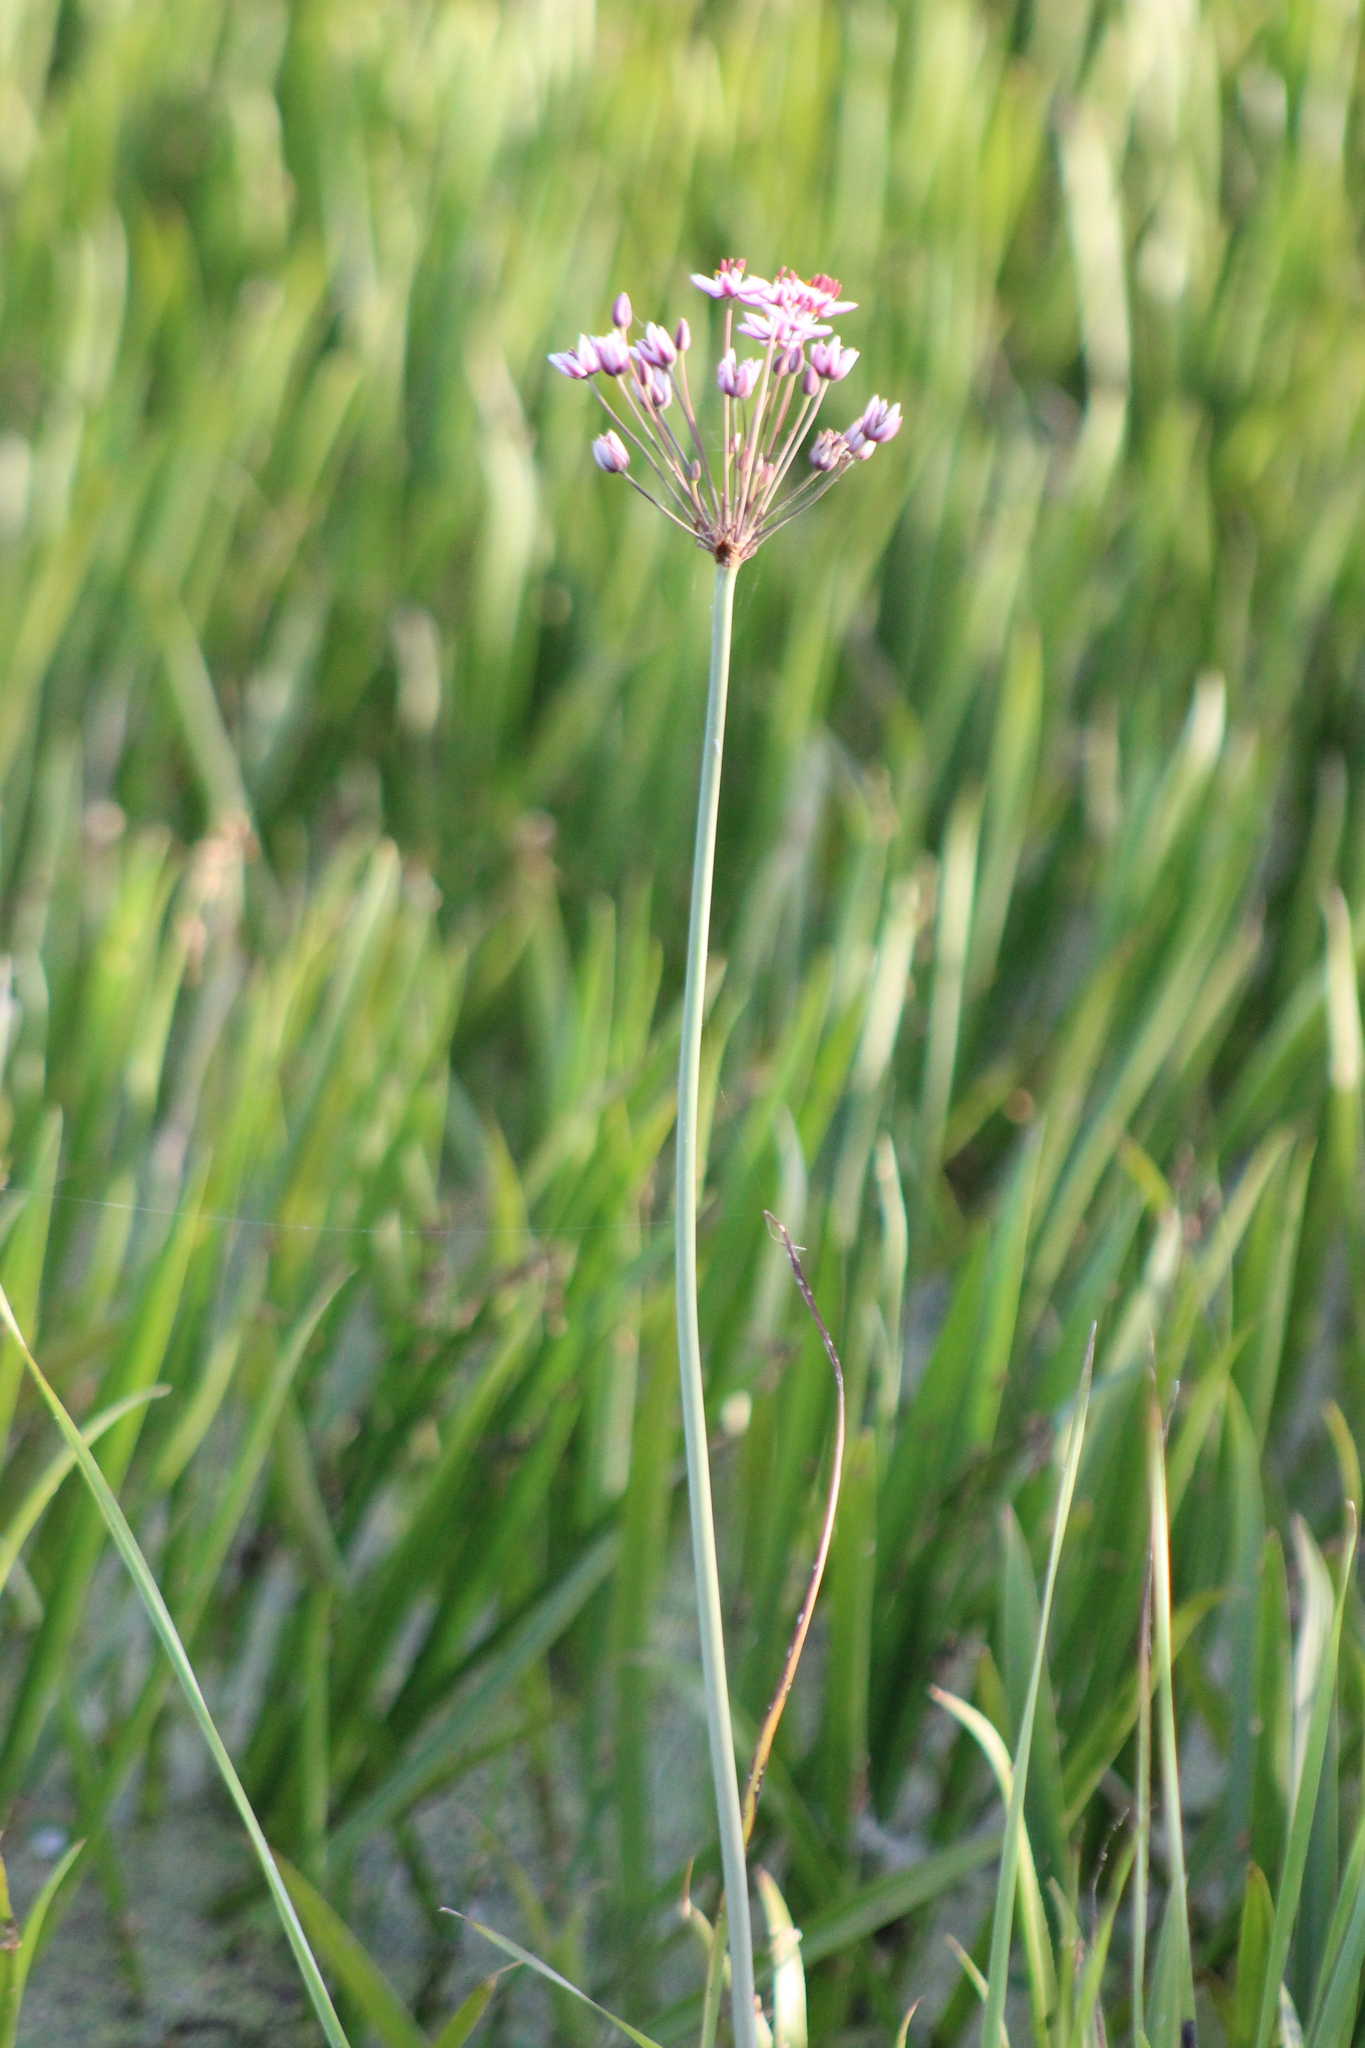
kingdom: Plantae
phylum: Tracheophyta
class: Liliopsida
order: Alismatales
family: Butomaceae
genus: Butomus
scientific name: Butomus umbellatus
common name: Flowering-rush
